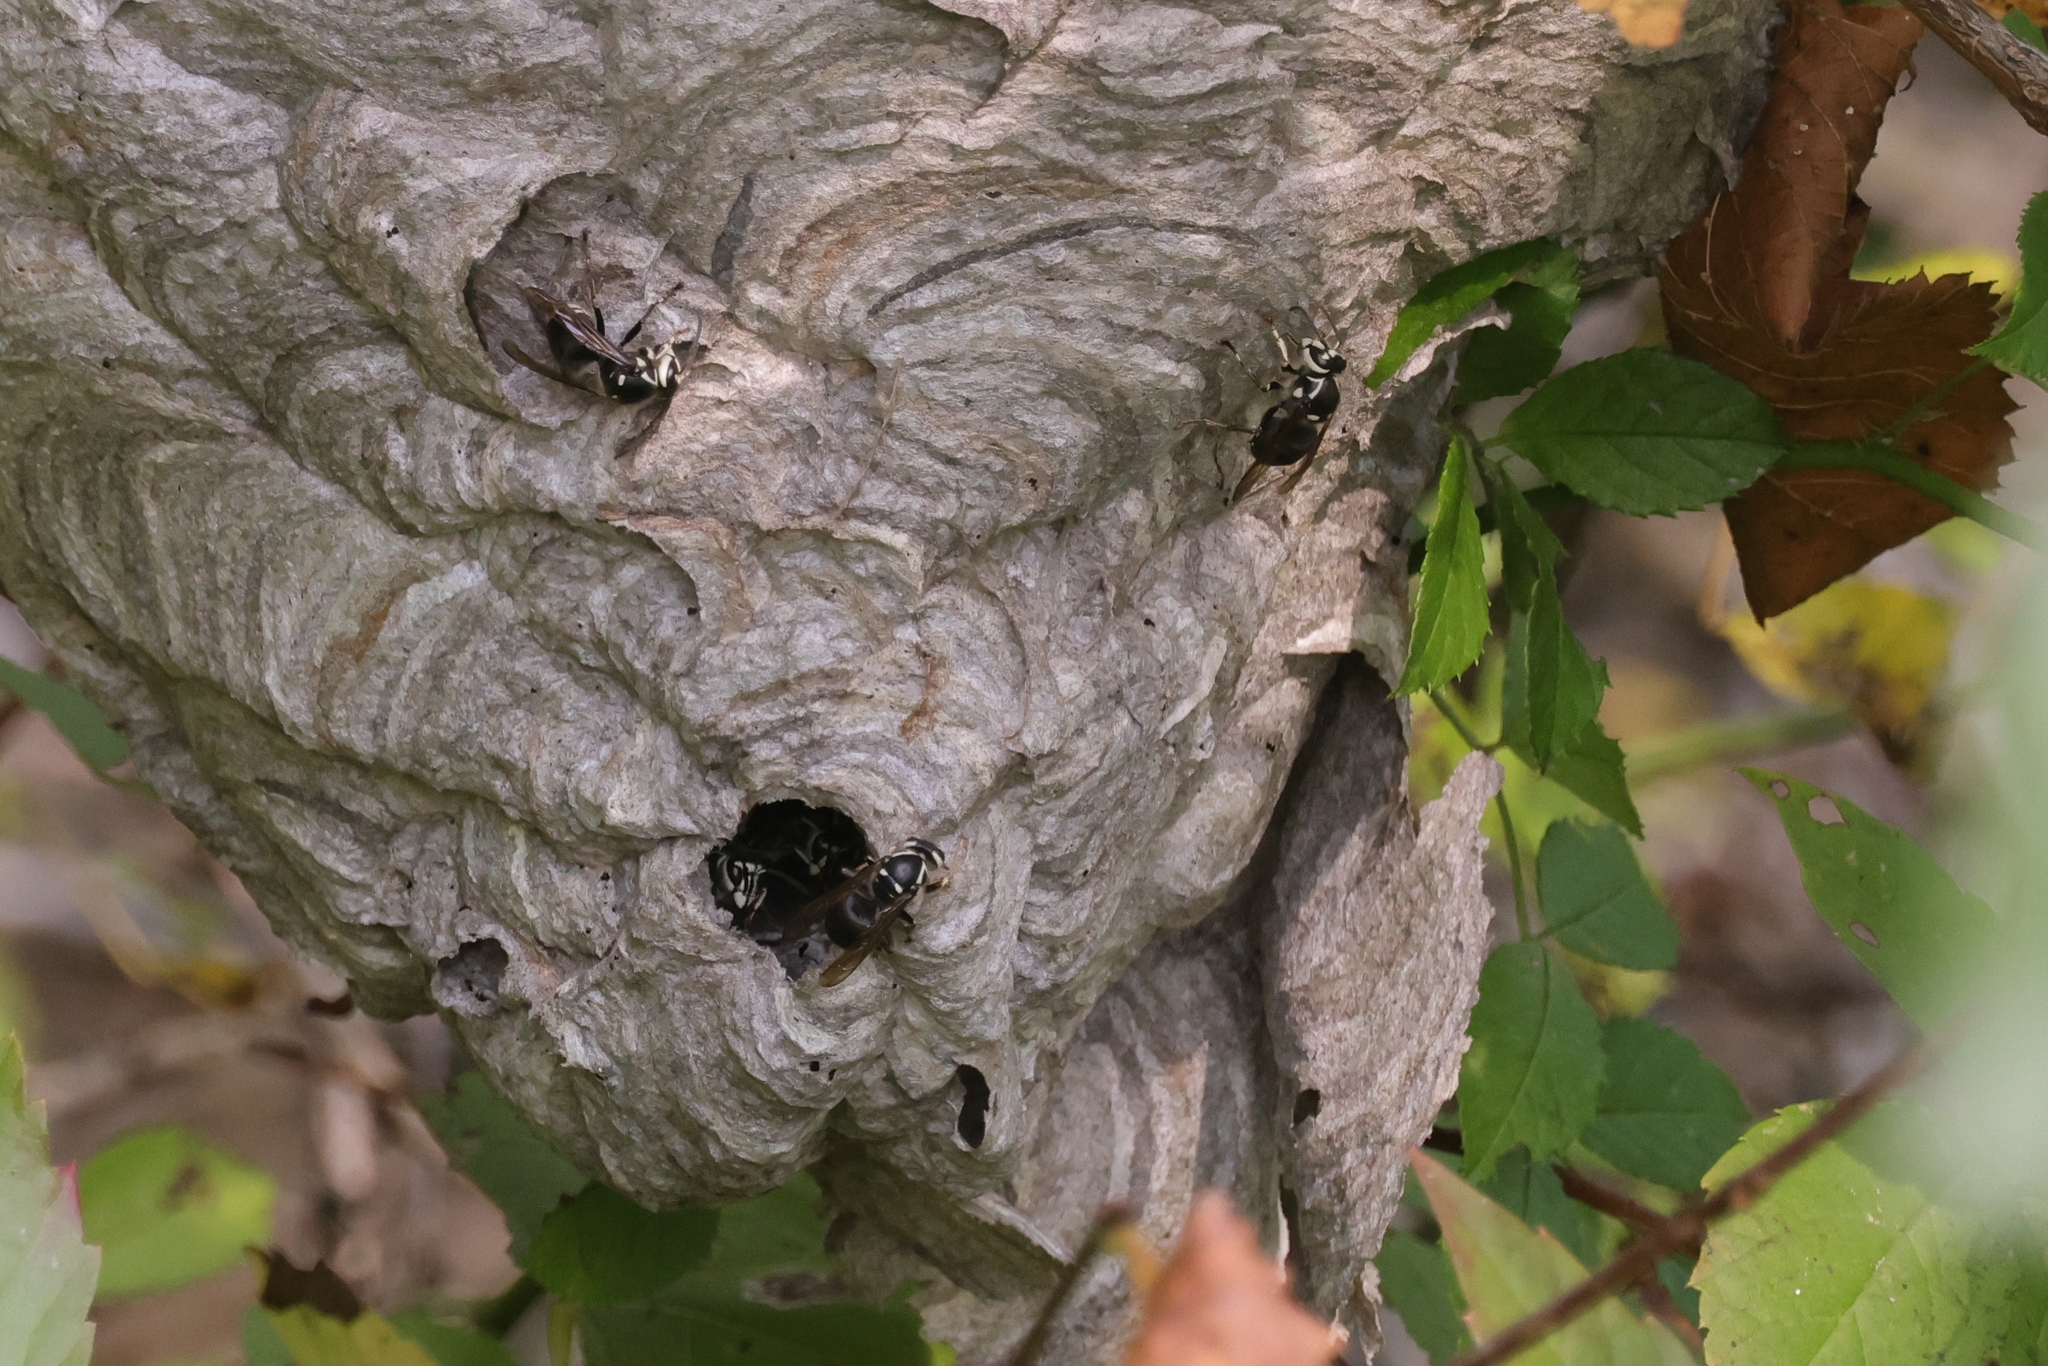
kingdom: Animalia
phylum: Arthropoda
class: Insecta
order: Hymenoptera
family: Vespidae
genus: Dolichovespula
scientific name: Dolichovespula maculata
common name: Bald-faced hornet
